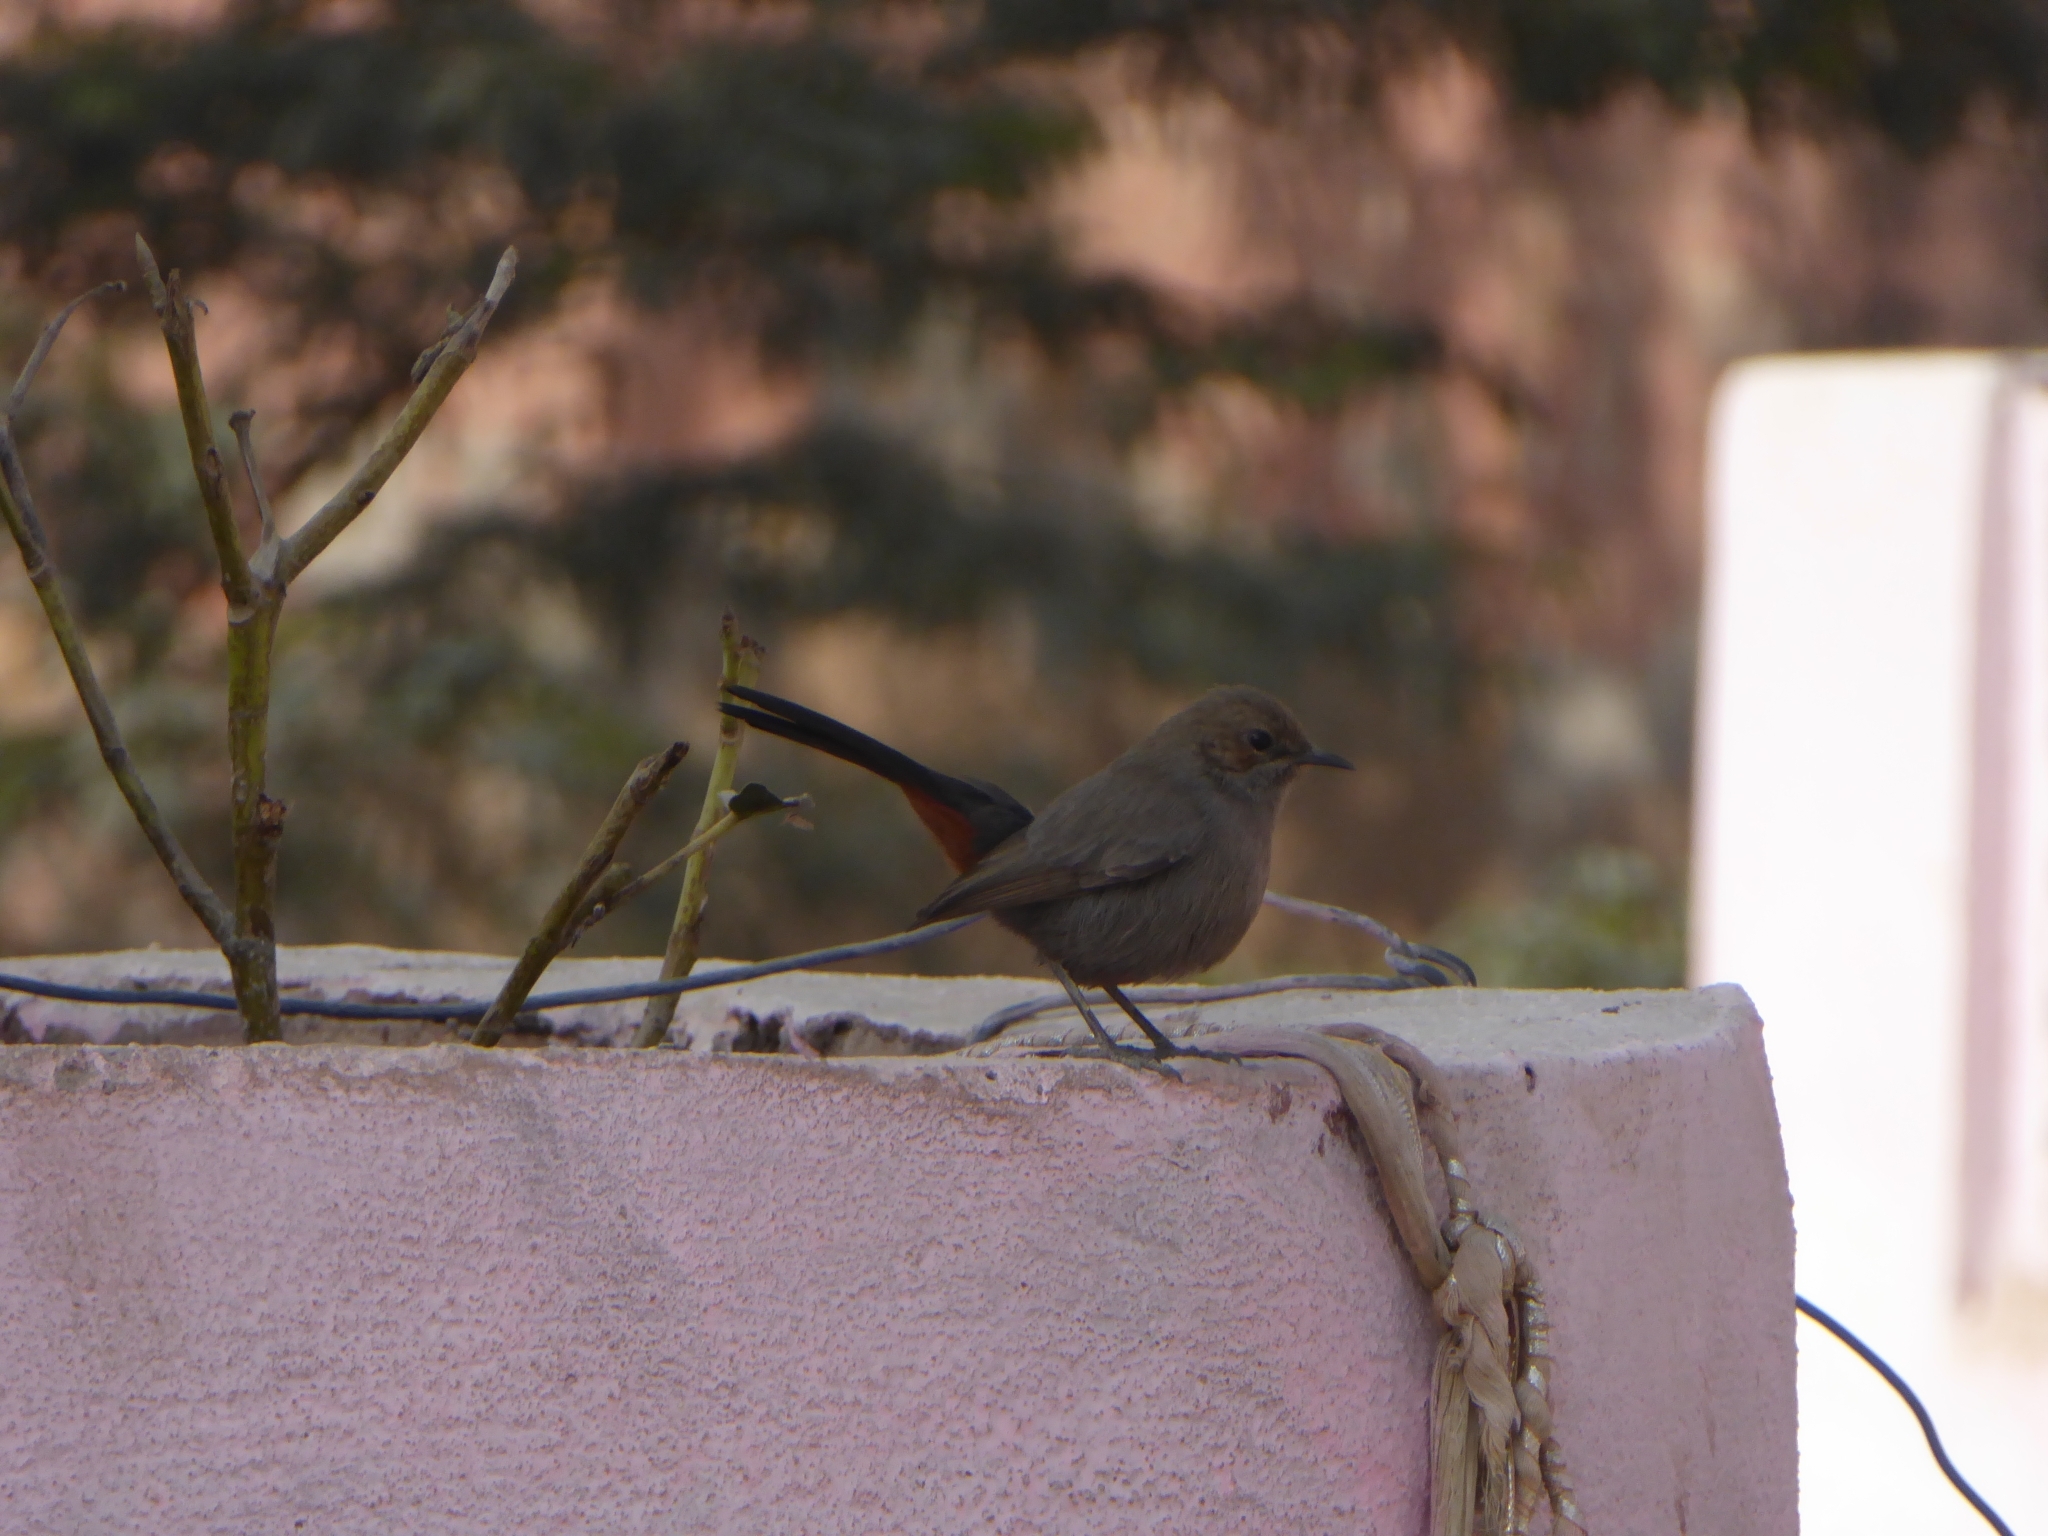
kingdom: Animalia
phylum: Chordata
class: Aves
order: Passeriformes
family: Muscicapidae
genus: Saxicoloides
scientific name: Saxicoloides fulicatus
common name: Indian robin
